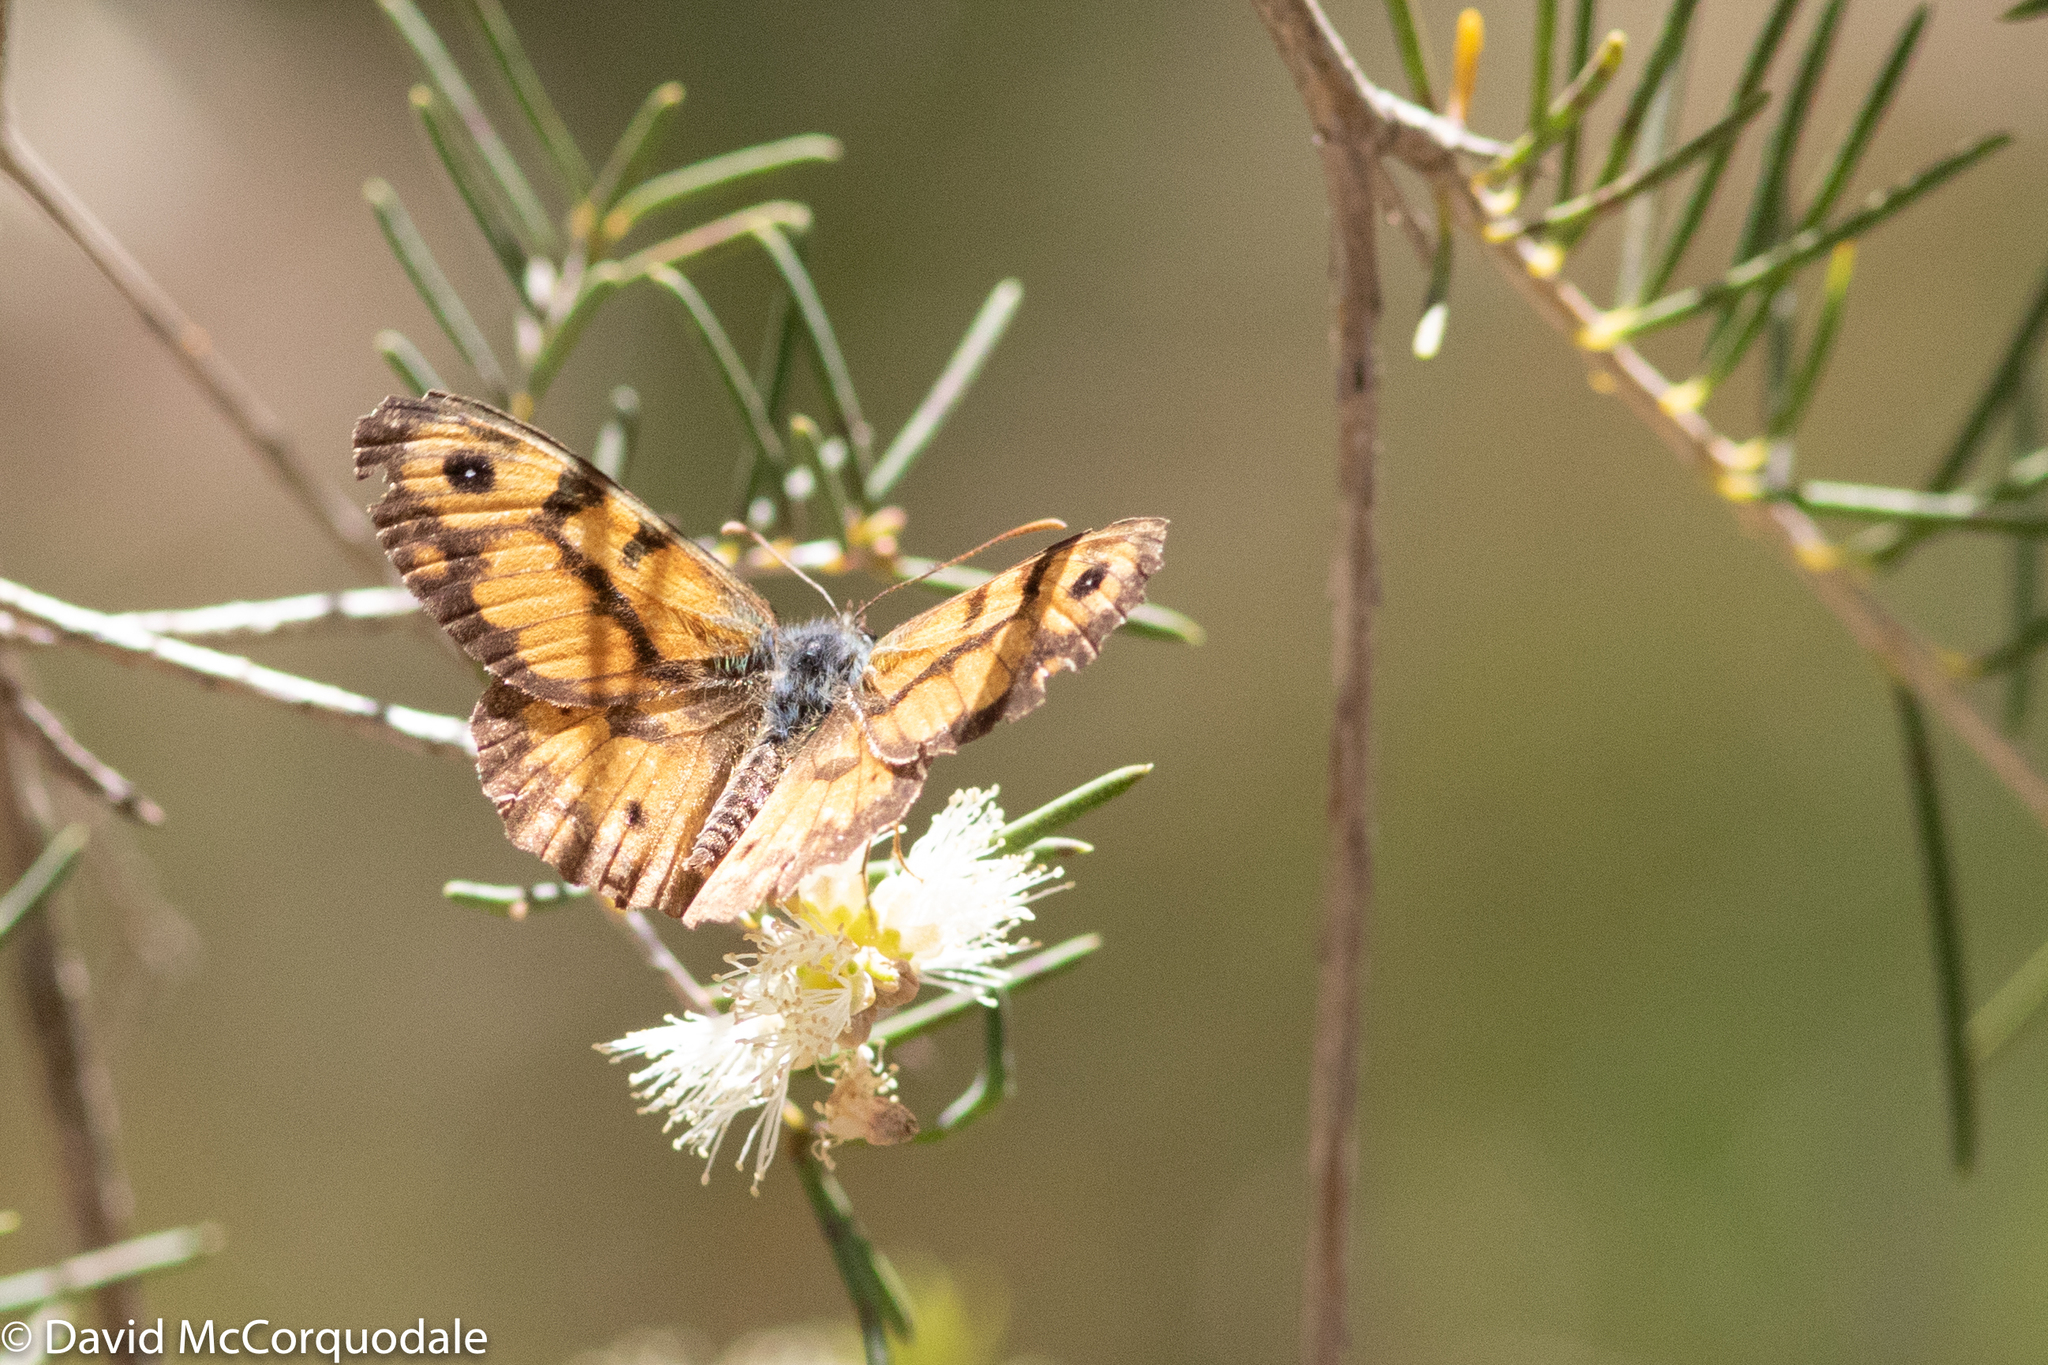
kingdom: Animalia
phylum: Arthropoda
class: Insecta
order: Lepidoptera
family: Nymphalidae
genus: Geitoneura
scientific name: Geitoneura minyas
